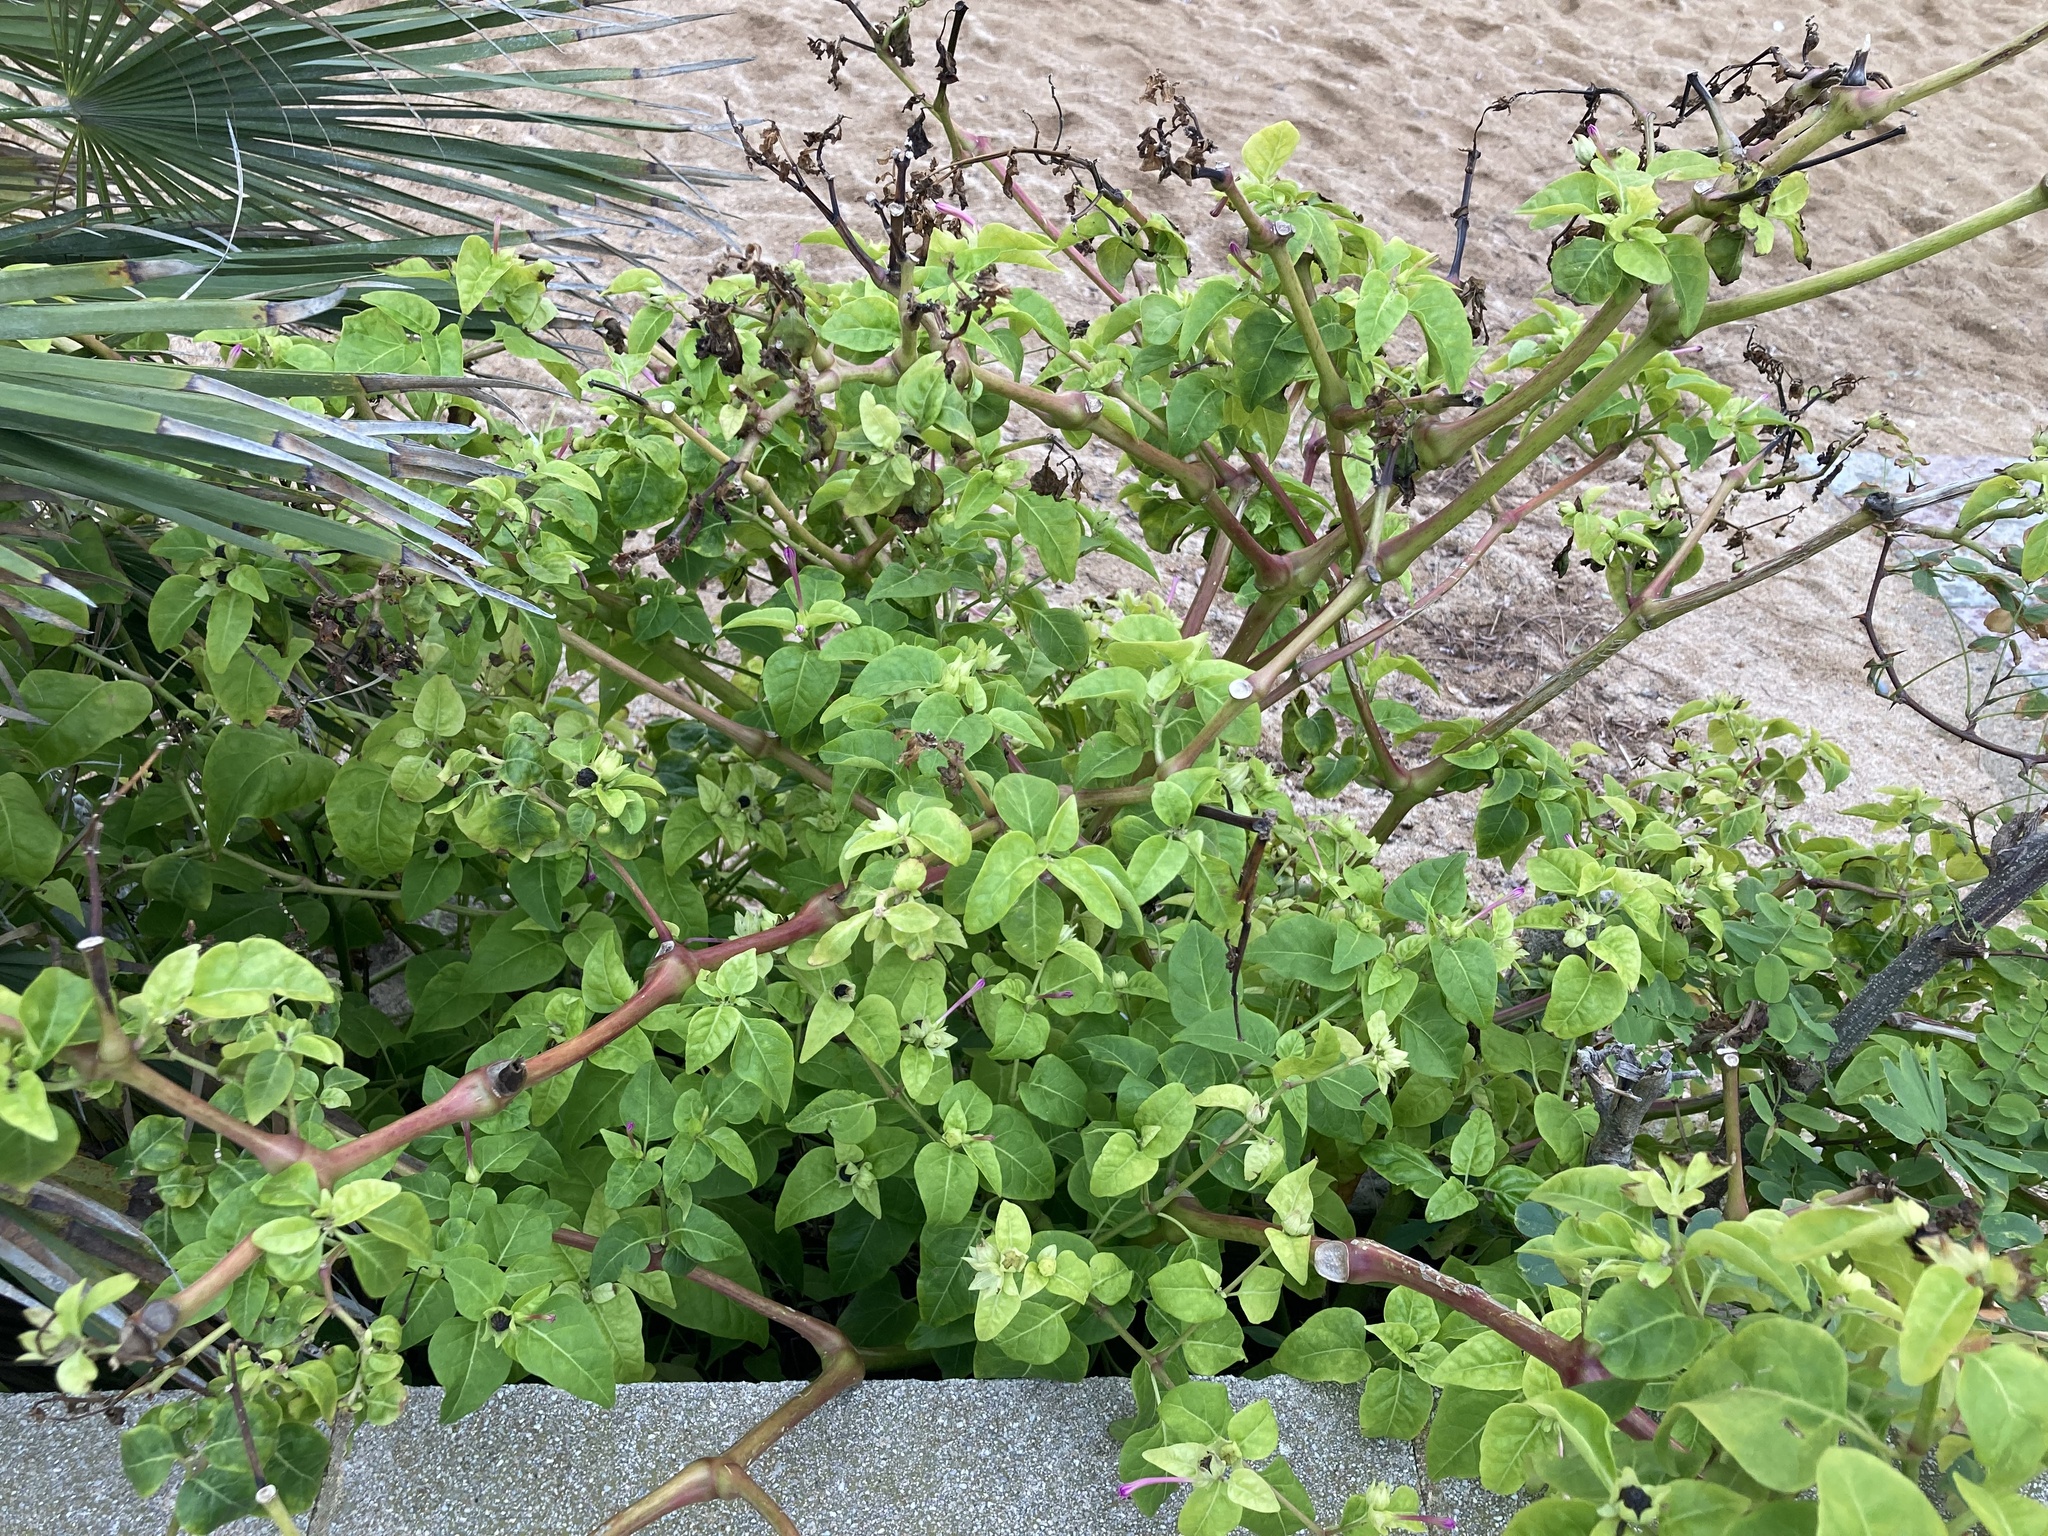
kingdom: Plantae
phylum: Tracheophyta
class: Magnoliopsida
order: Caryophyllales
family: Nyctaginaceae
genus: Mirabilis
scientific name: Mirabilis jalapa
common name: Marvel-of-peru
